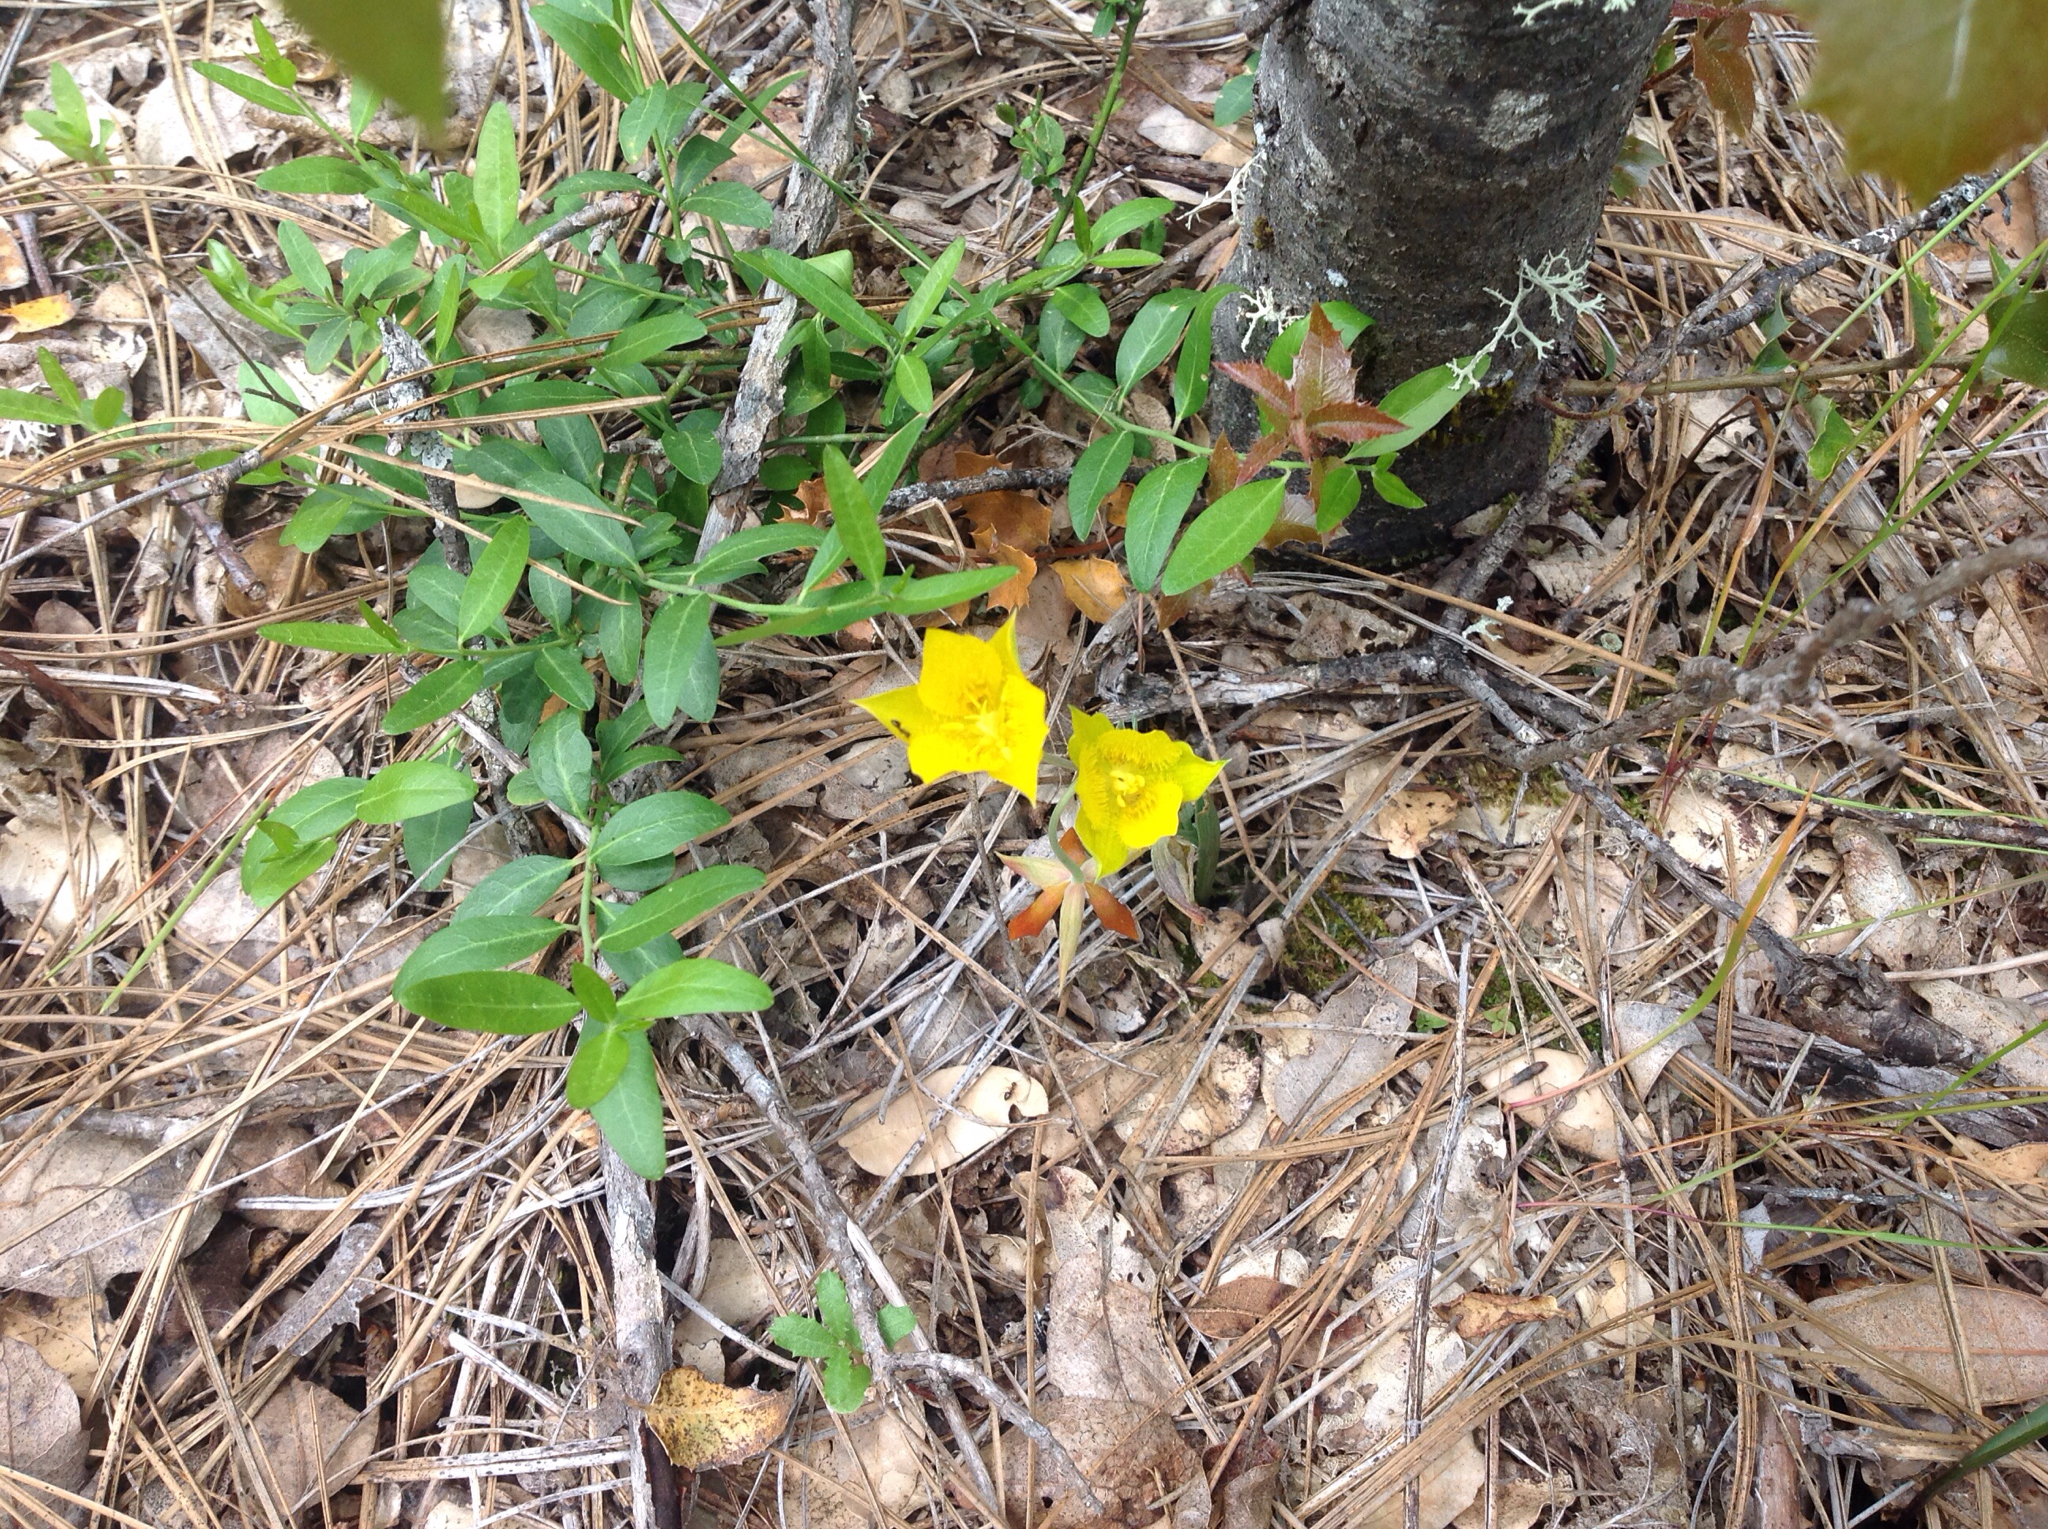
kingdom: Plantae
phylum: Tracheophyta
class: Liliopsida
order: Liliales
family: Liliaceae
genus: Calochortus
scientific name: Calochortus monophyllus
